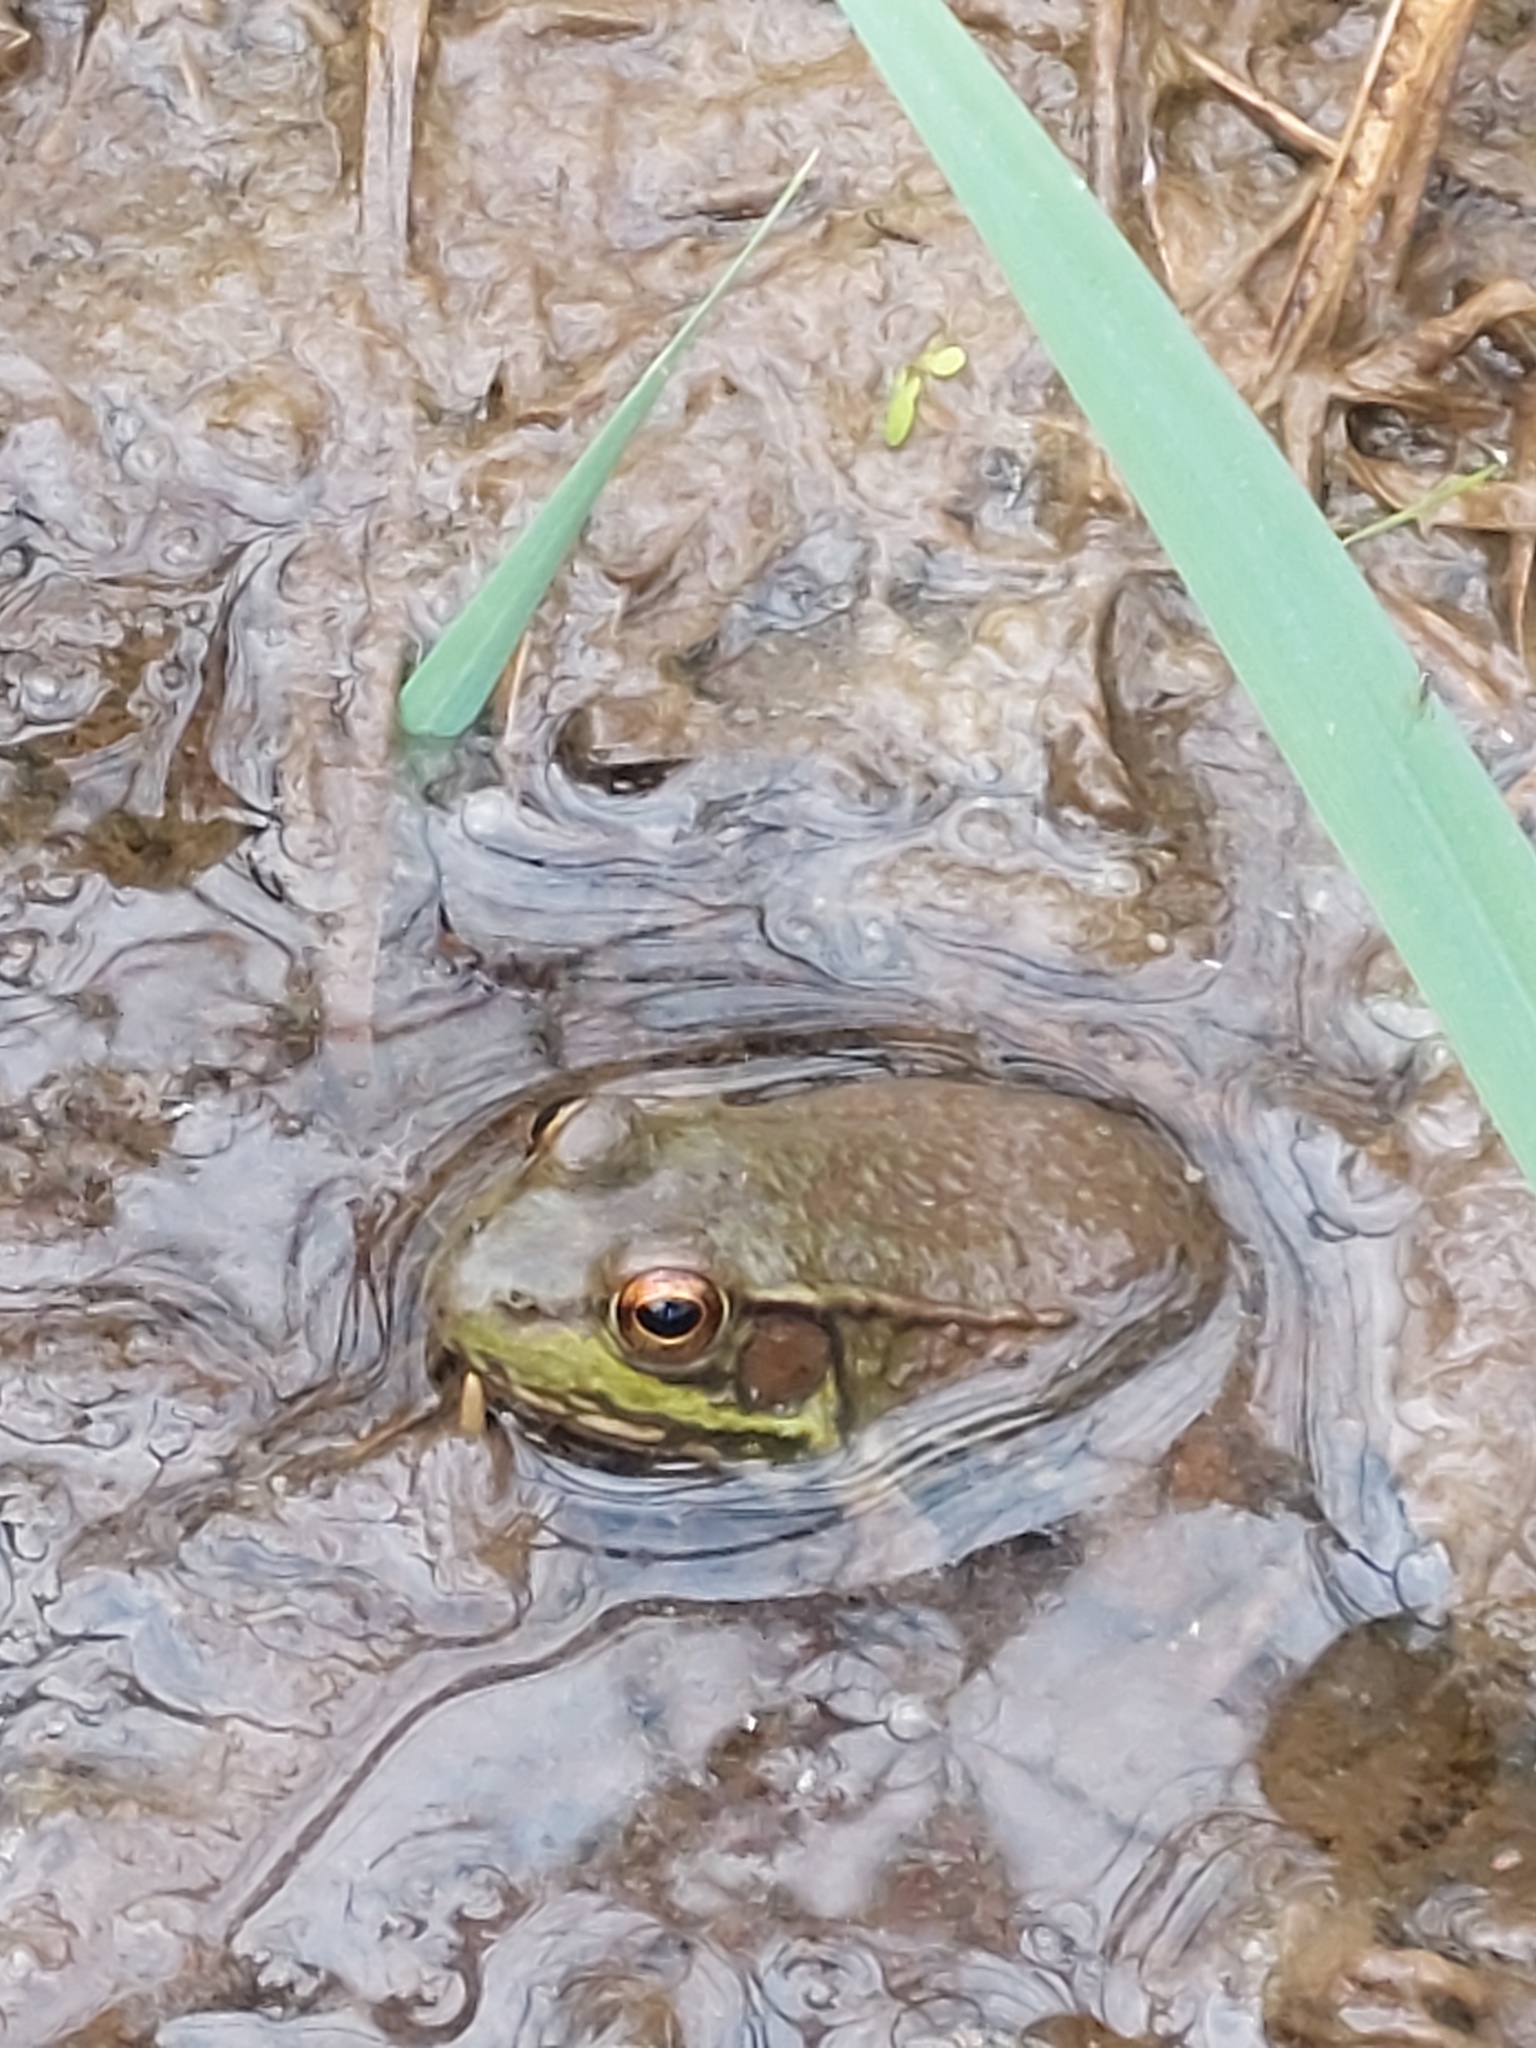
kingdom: Animalia
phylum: Chordata
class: Amphibia
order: Anura
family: Ranidae
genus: Lithobates
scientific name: Lithobates clamitans
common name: Green frog
